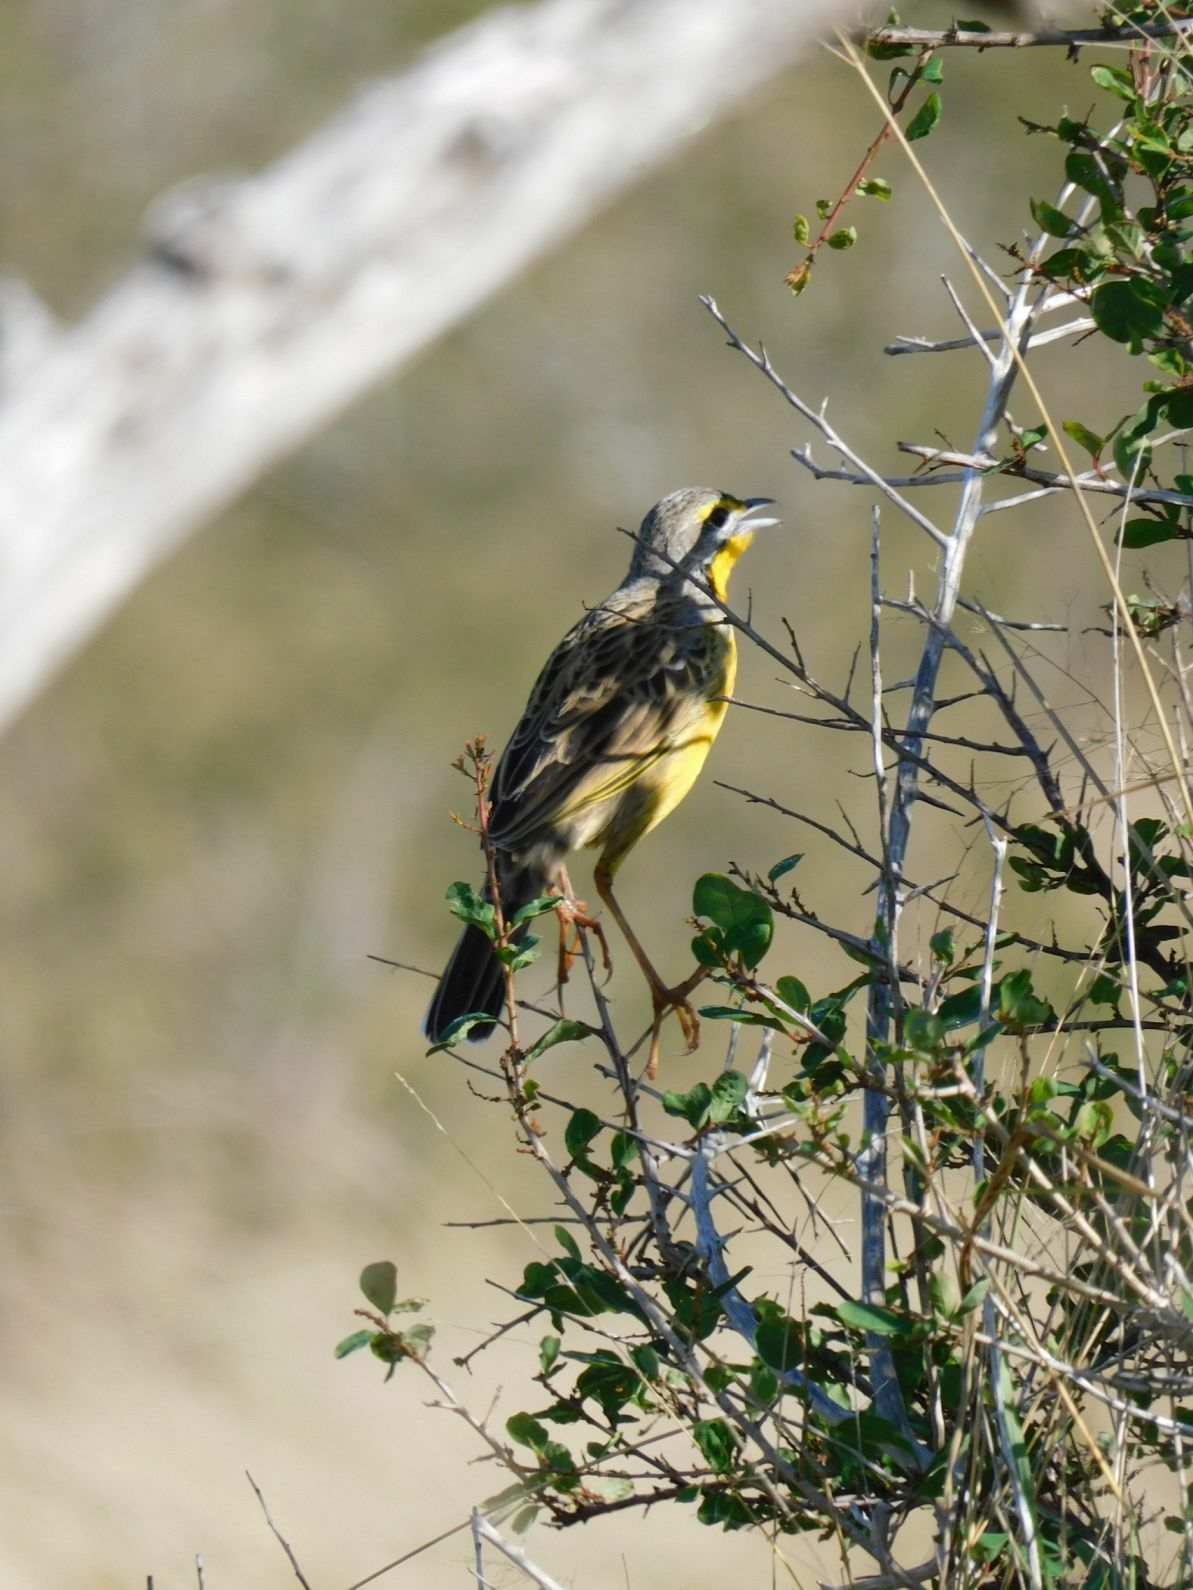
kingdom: Animalia
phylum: Chordata
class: Aves
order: Passeriformes
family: Motacillidae
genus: Macronyx
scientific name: Macronyx croceus
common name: Yellow-throated longclaw
